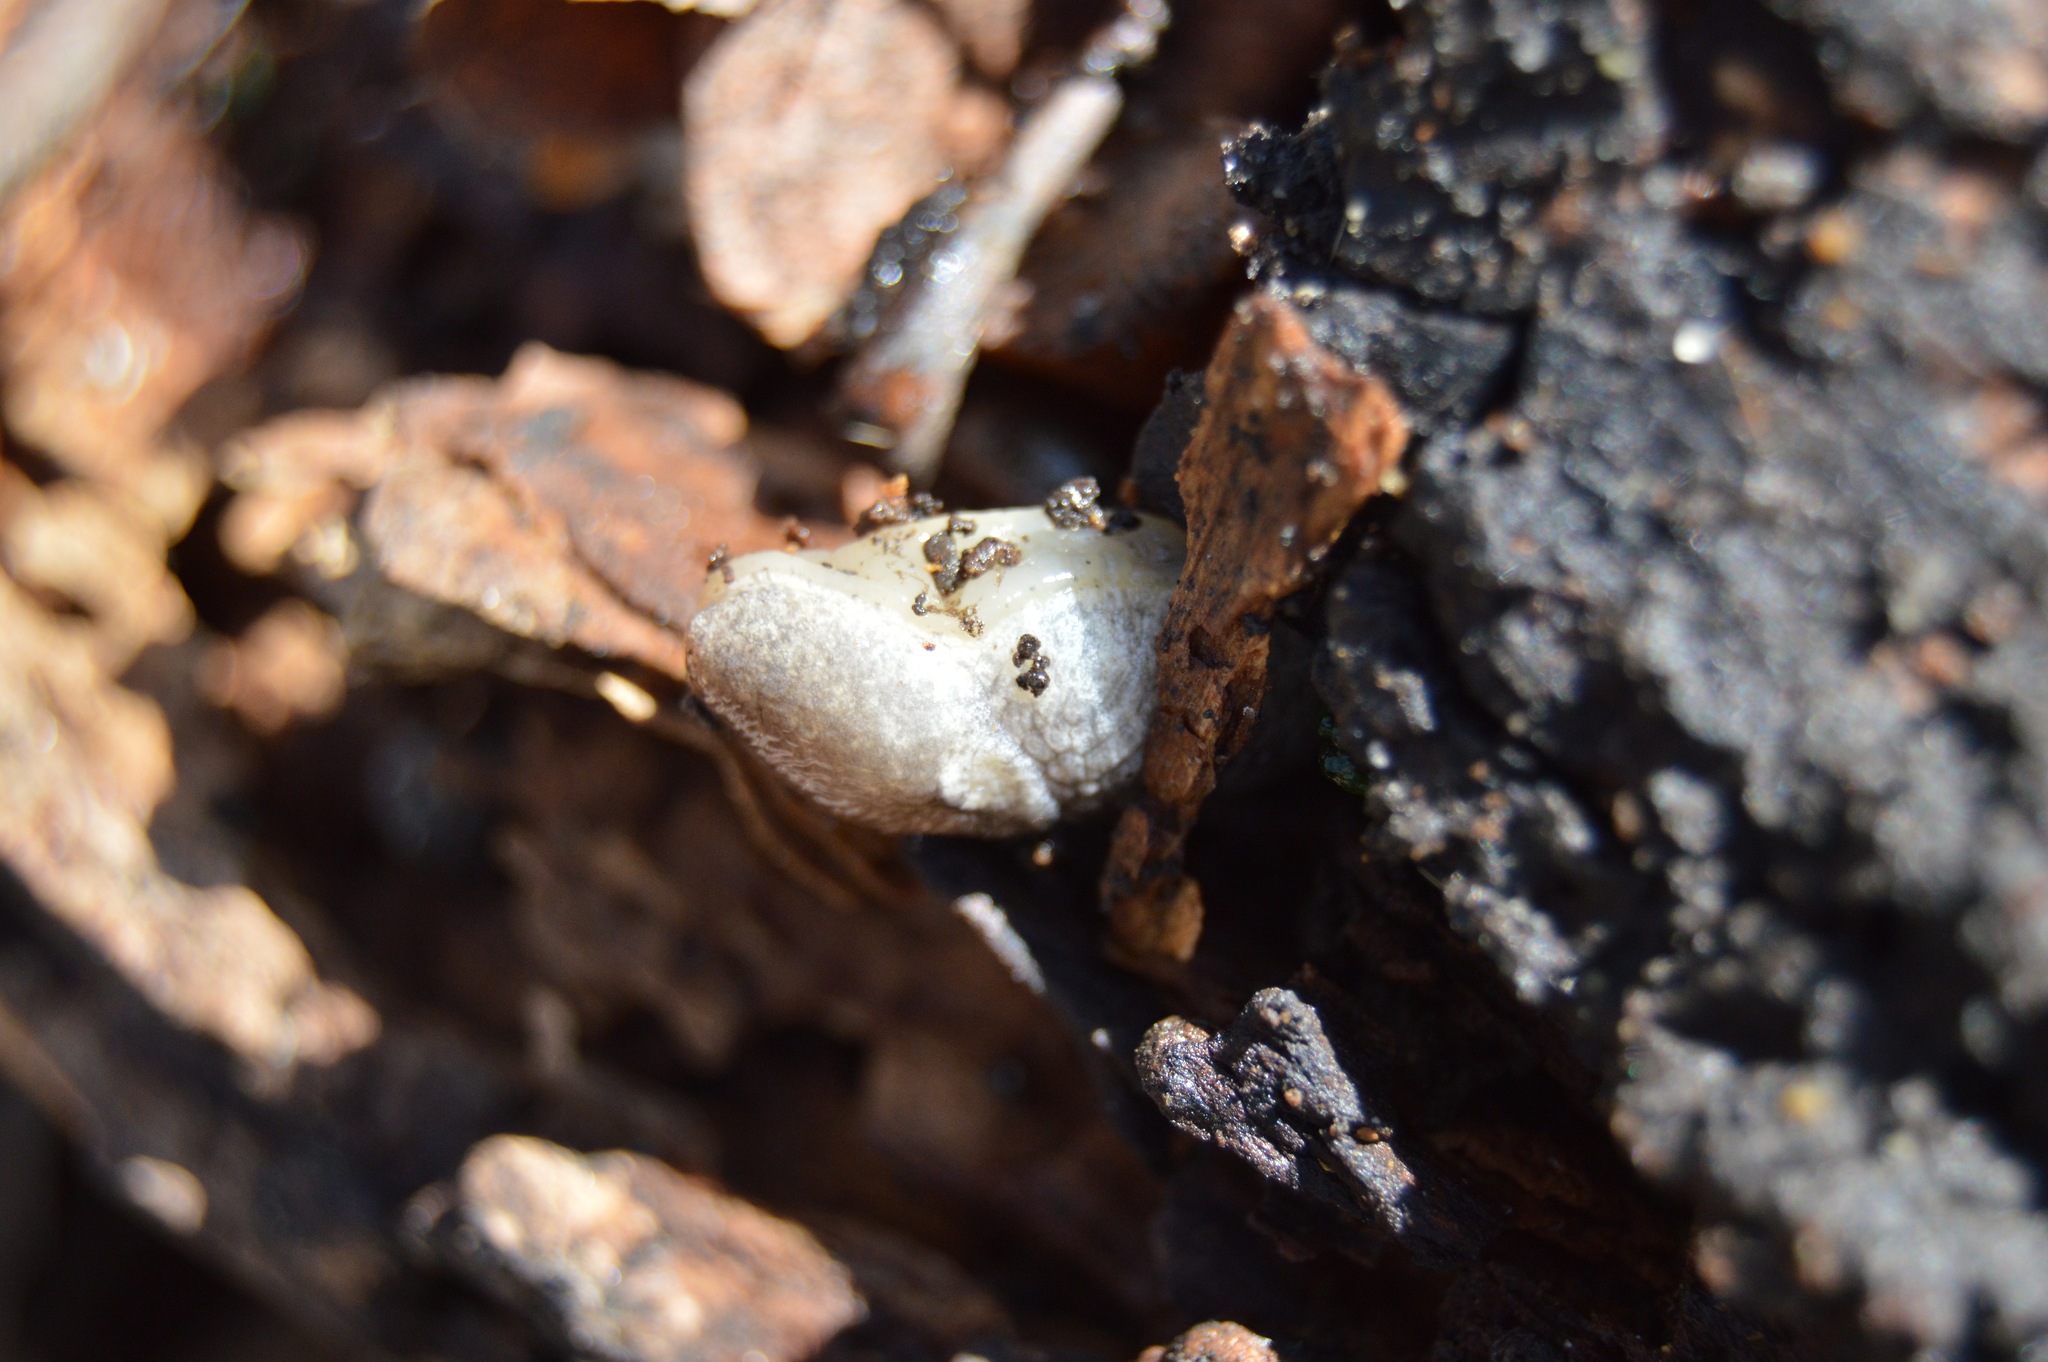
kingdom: Animalia
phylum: Mollusca
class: Gastropoda
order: Stylommatophora
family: Agriolimacidae
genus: Deroceras
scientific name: Deroceras reticulatum
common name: Gray field slug
